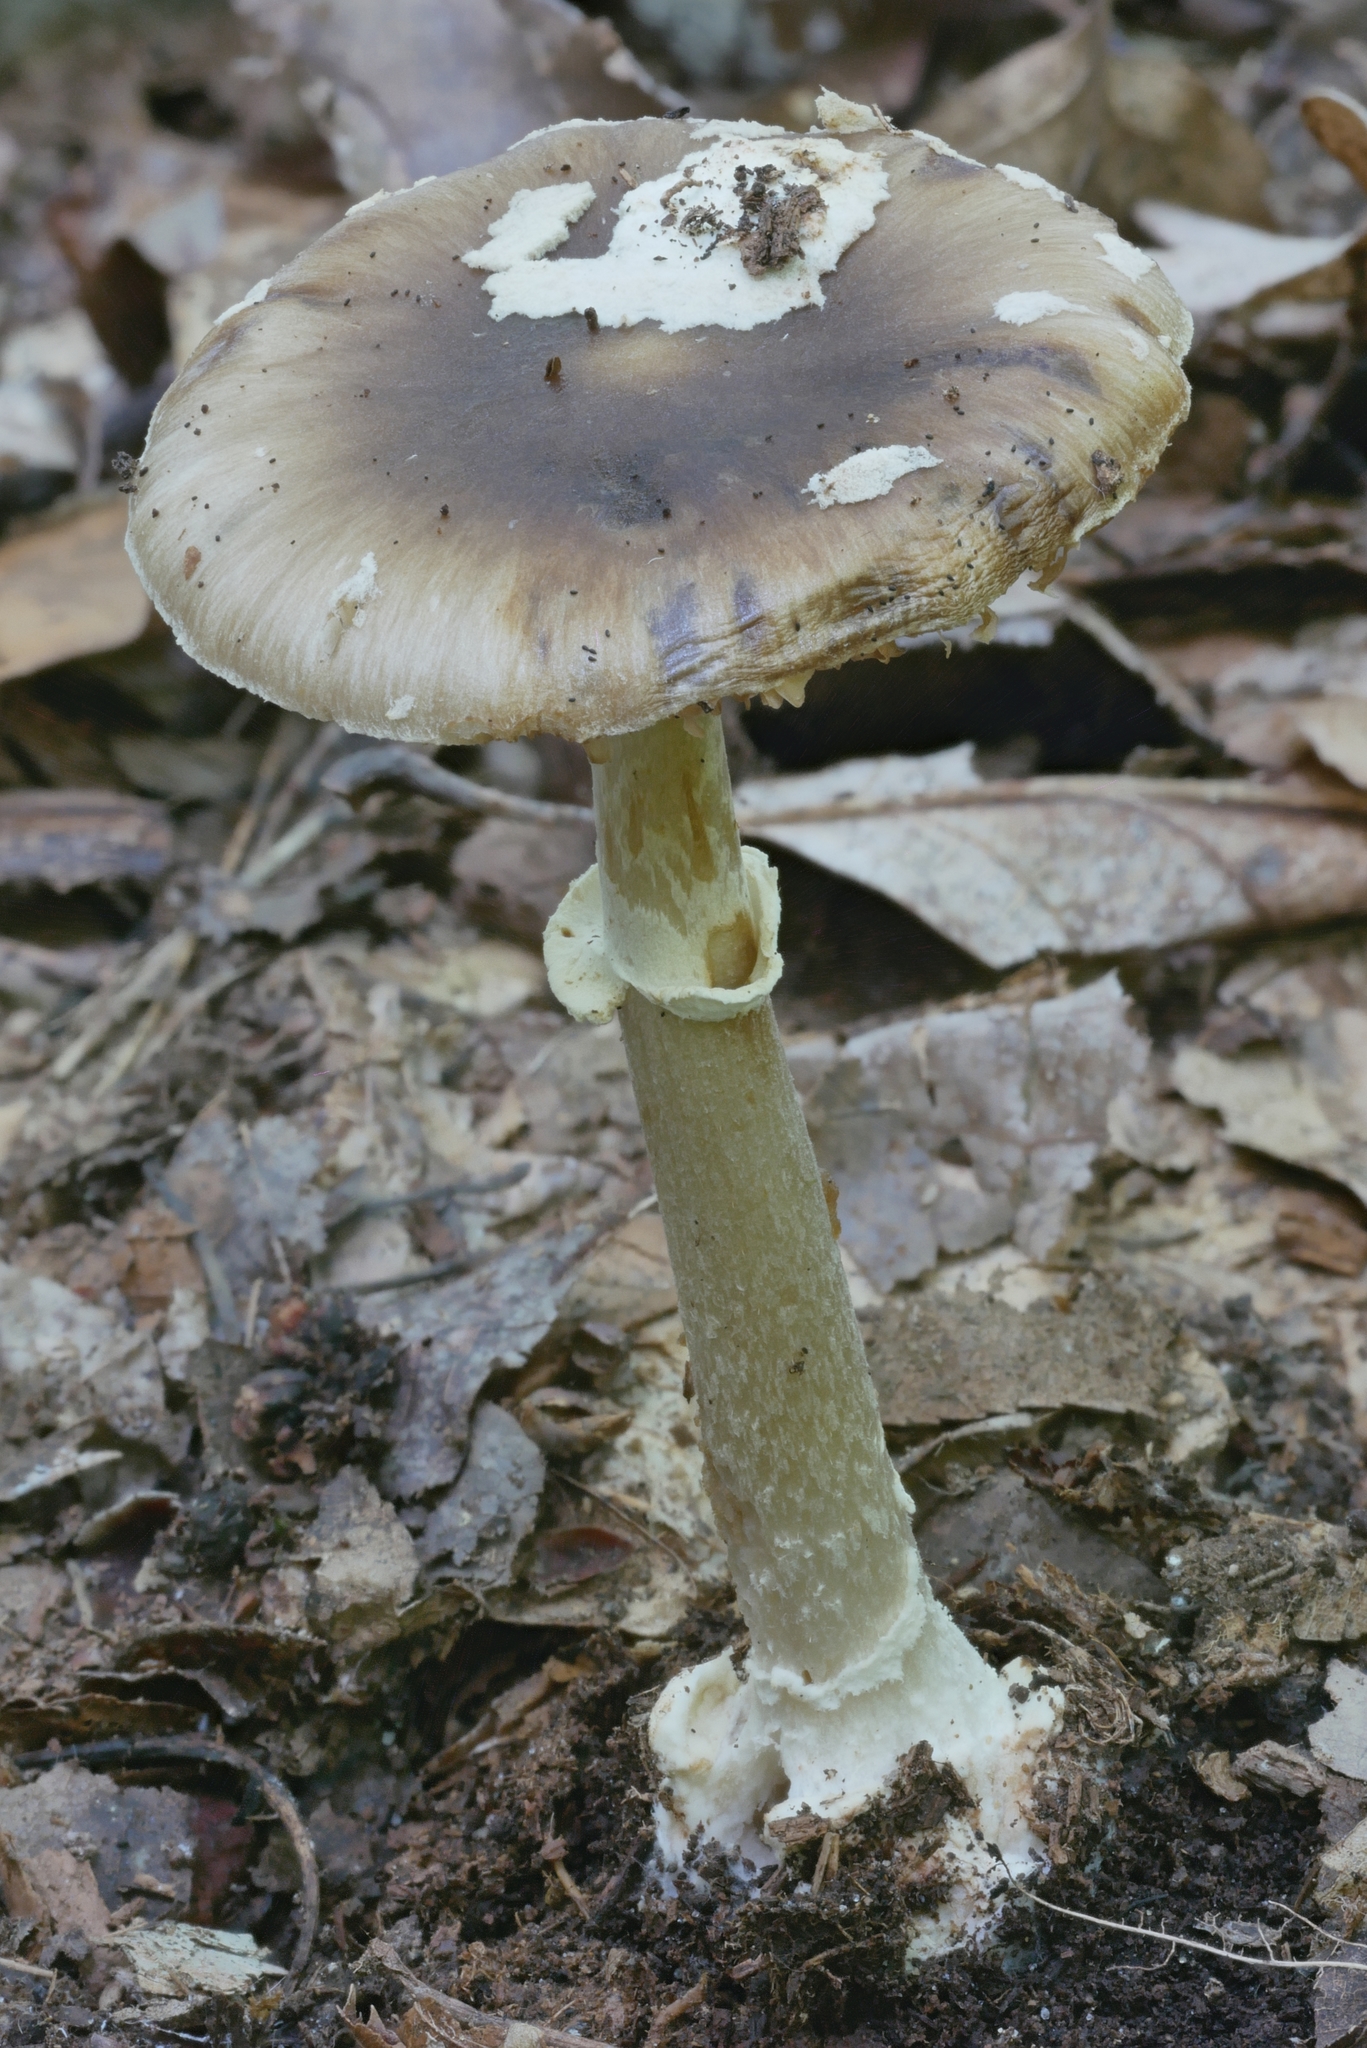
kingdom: Fungi
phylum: Basidiomycota
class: Agaricomycetes
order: Agaricales
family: Amanitaceae
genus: Amanita
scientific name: Amanita solaniolens
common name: Old potato amanita
